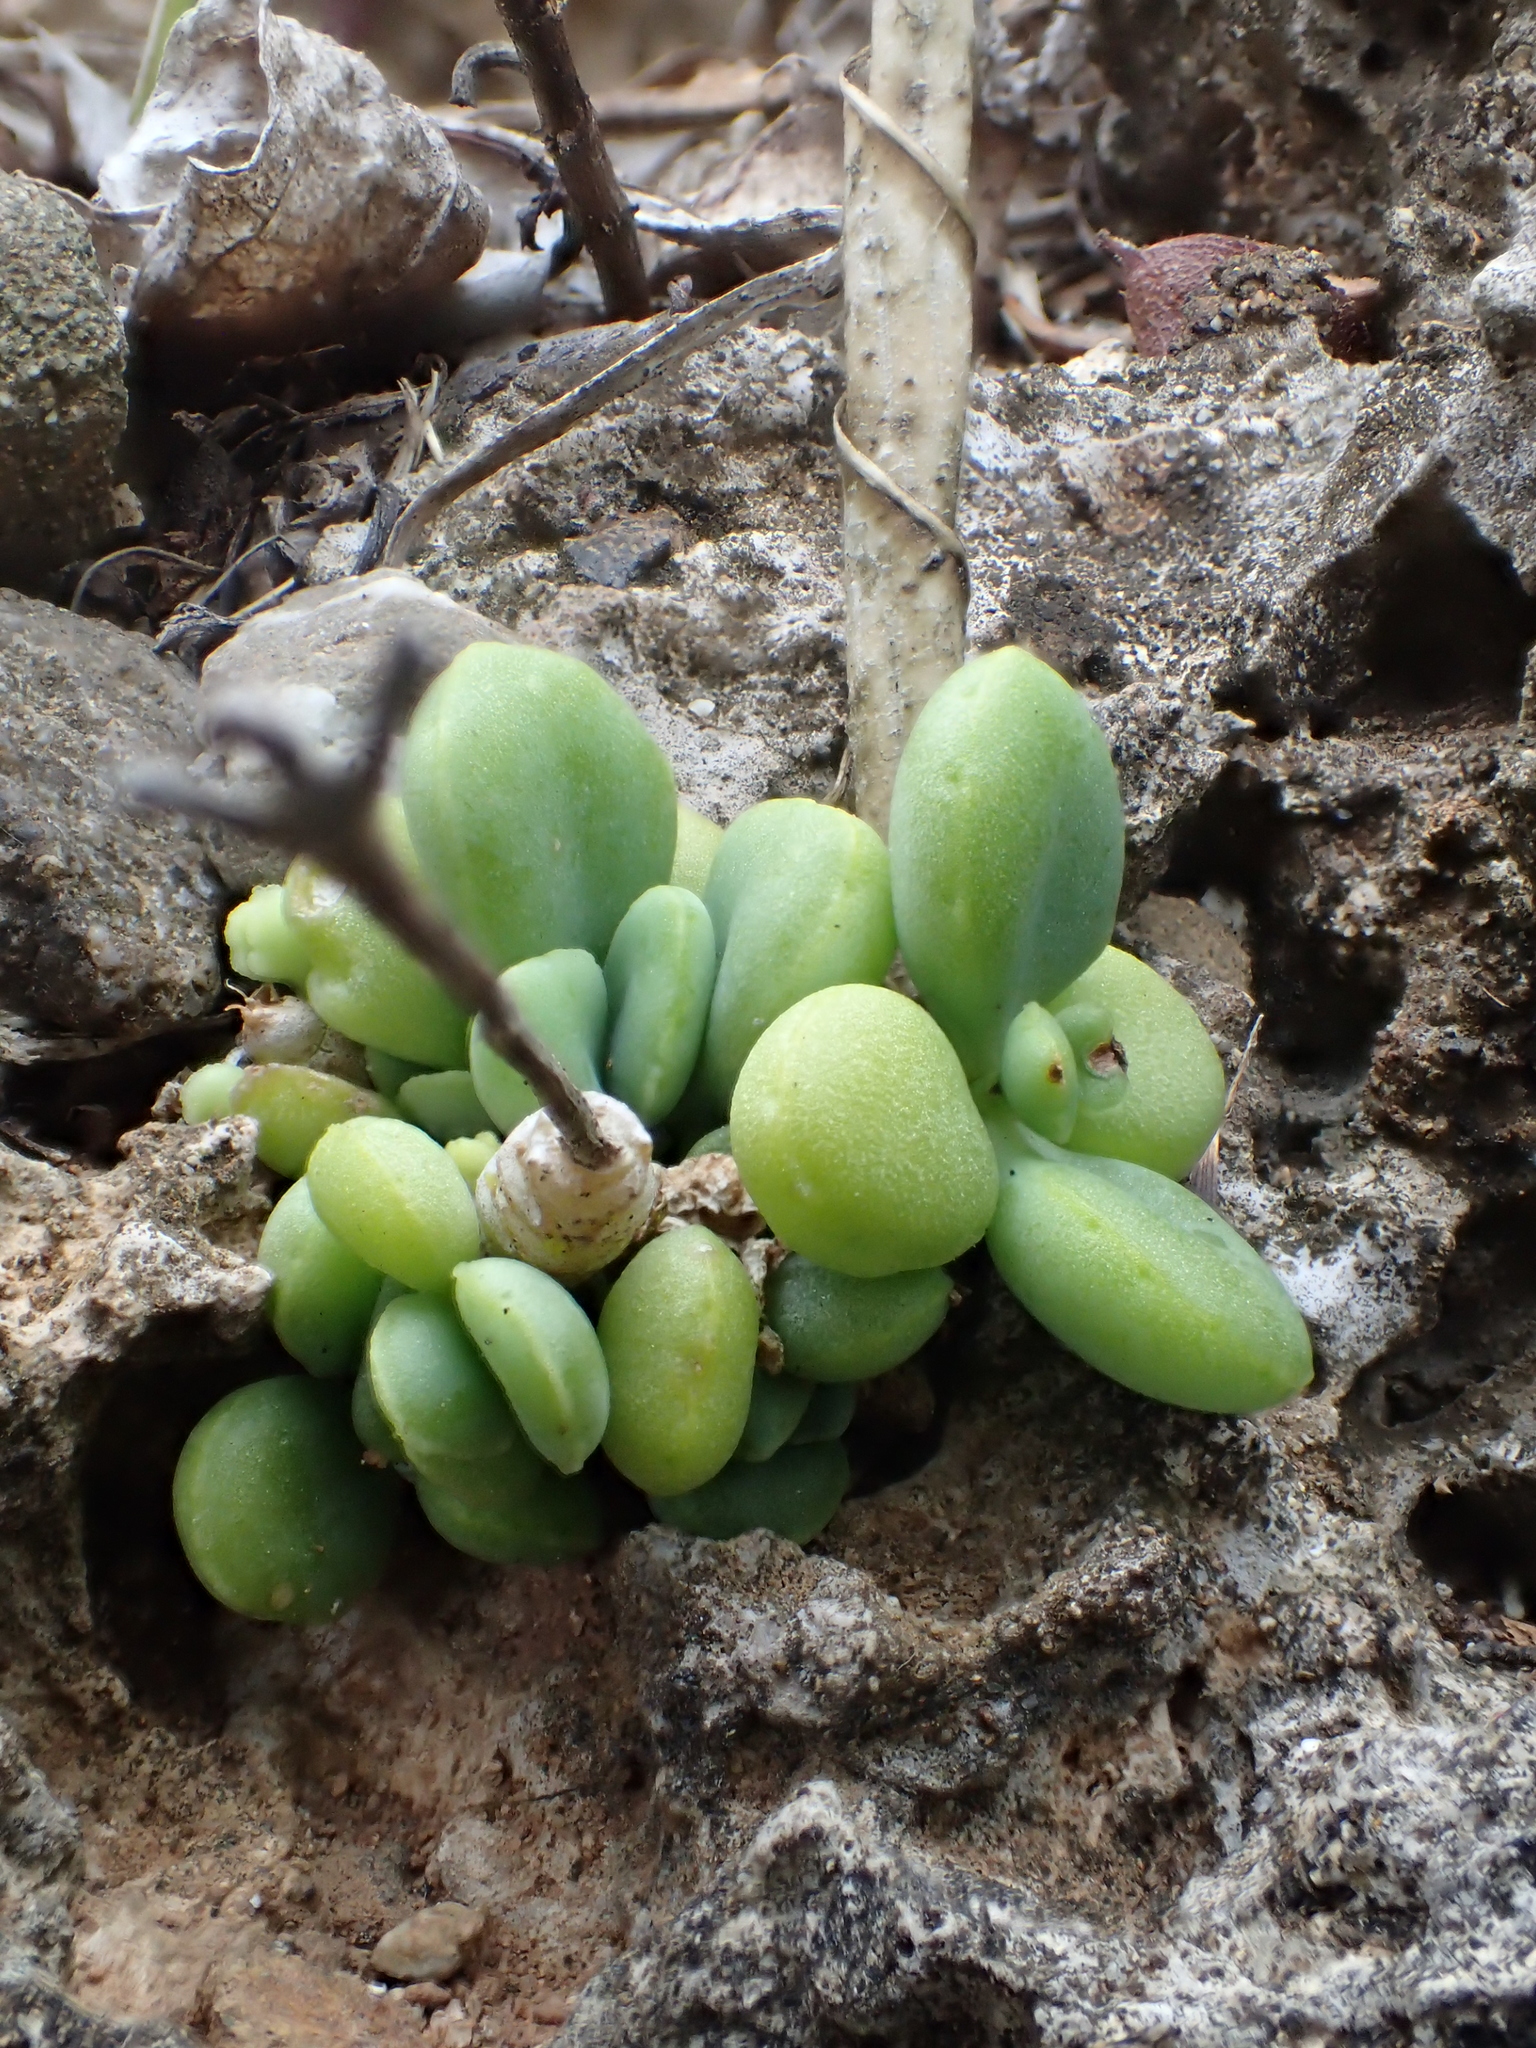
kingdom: Plantae
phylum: Tracheophyta
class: Magnoliopsida
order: Saxifragales
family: Crassulaceae
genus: Kalanchoe
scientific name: Kalanchoe integra
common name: Neverdie
